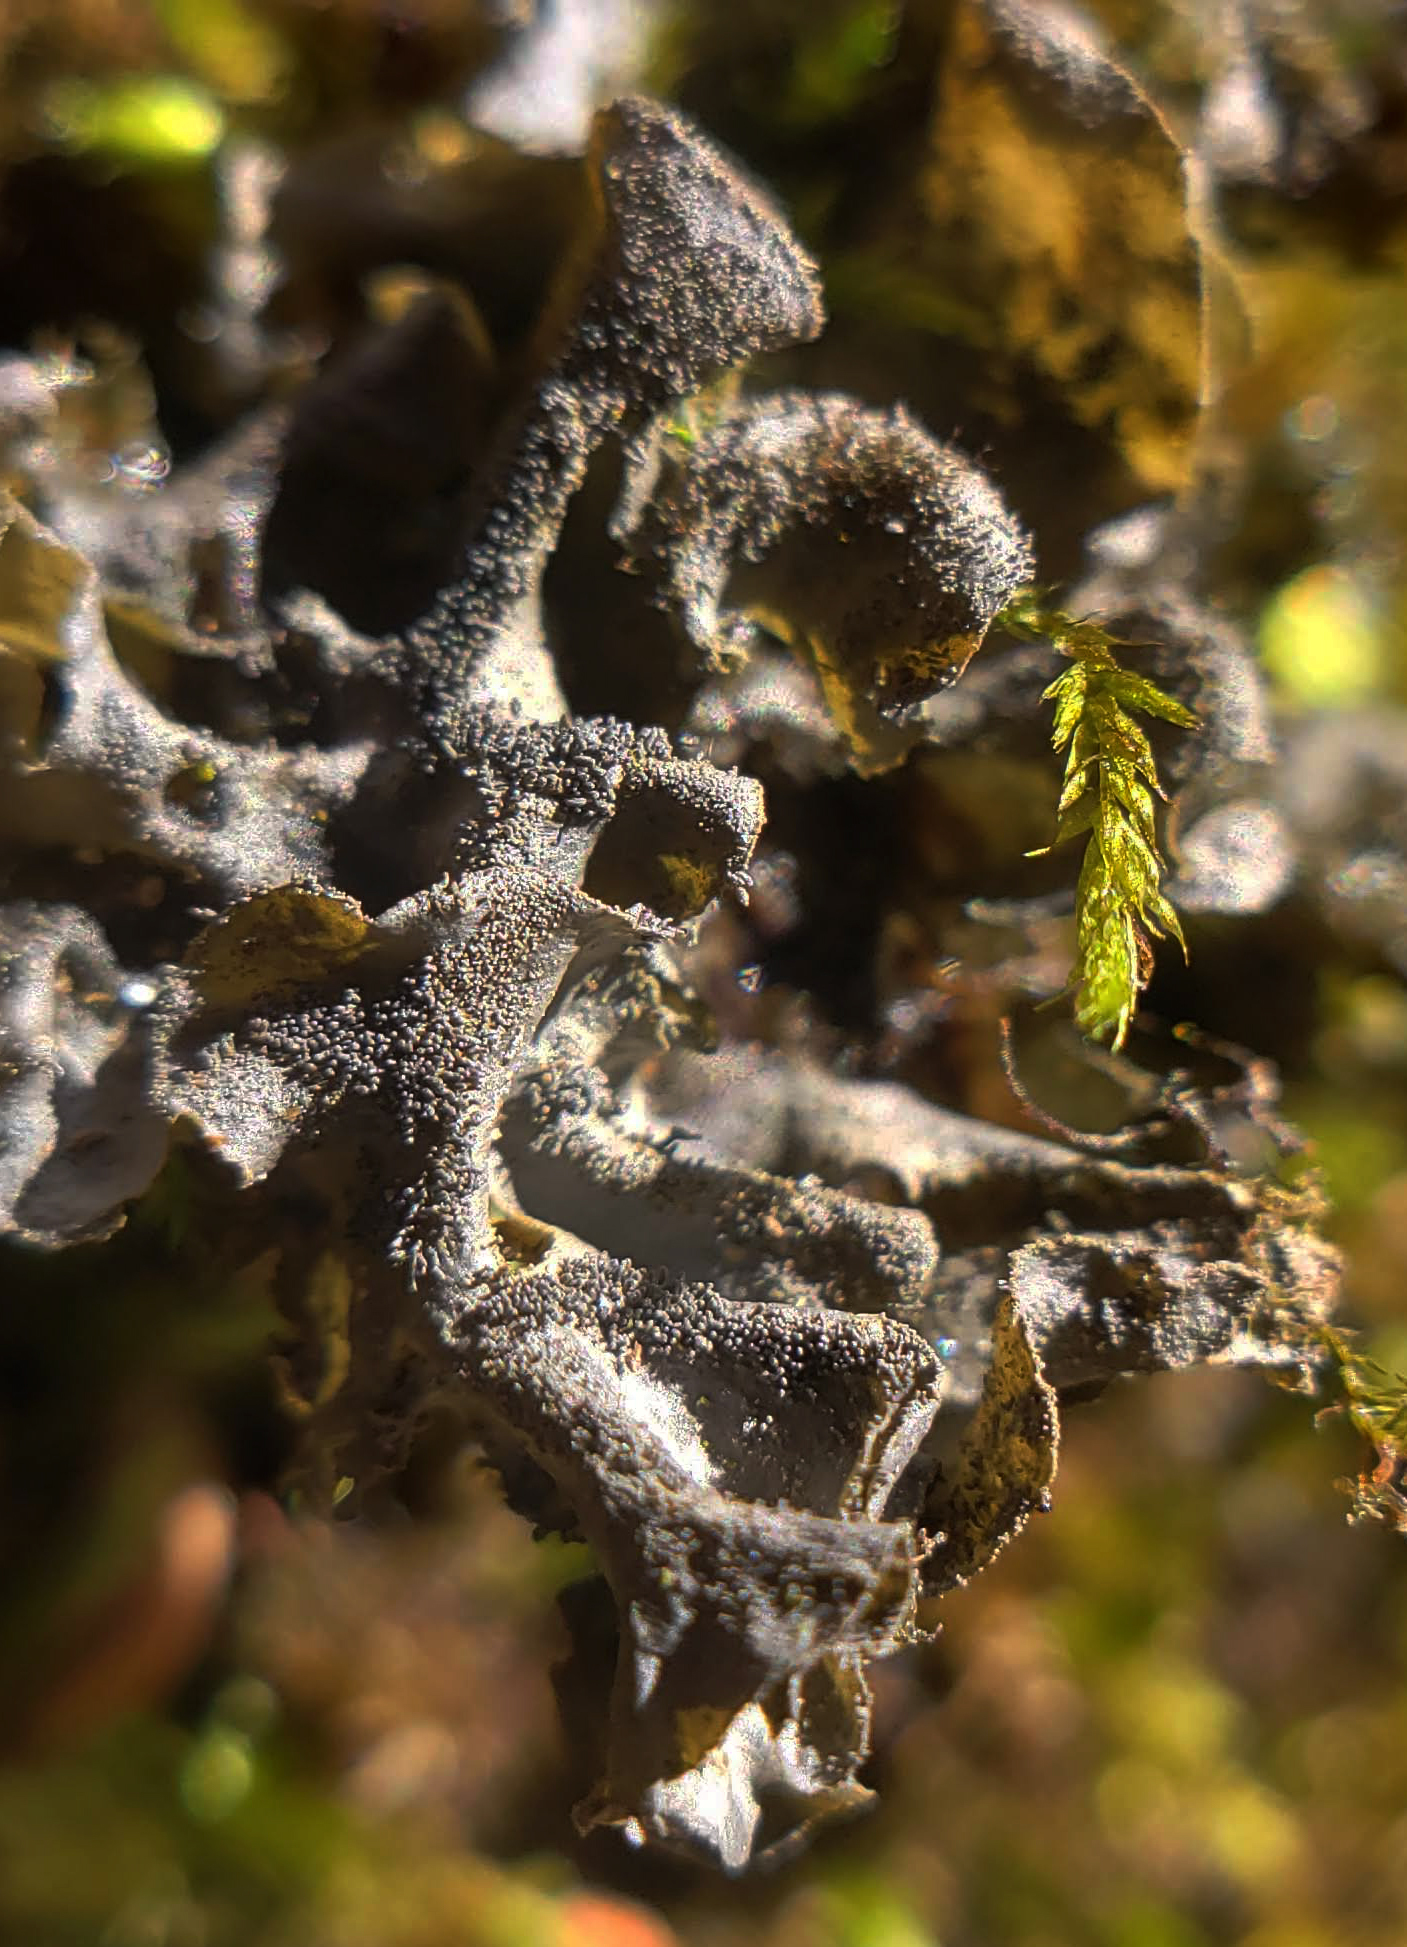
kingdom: Fungi
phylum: Ascomycota
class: Lecanoromycetes
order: Peltigerales
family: Collemataceae
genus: Leptogium
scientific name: Leptogium cyanescens
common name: Blue jellyskin
